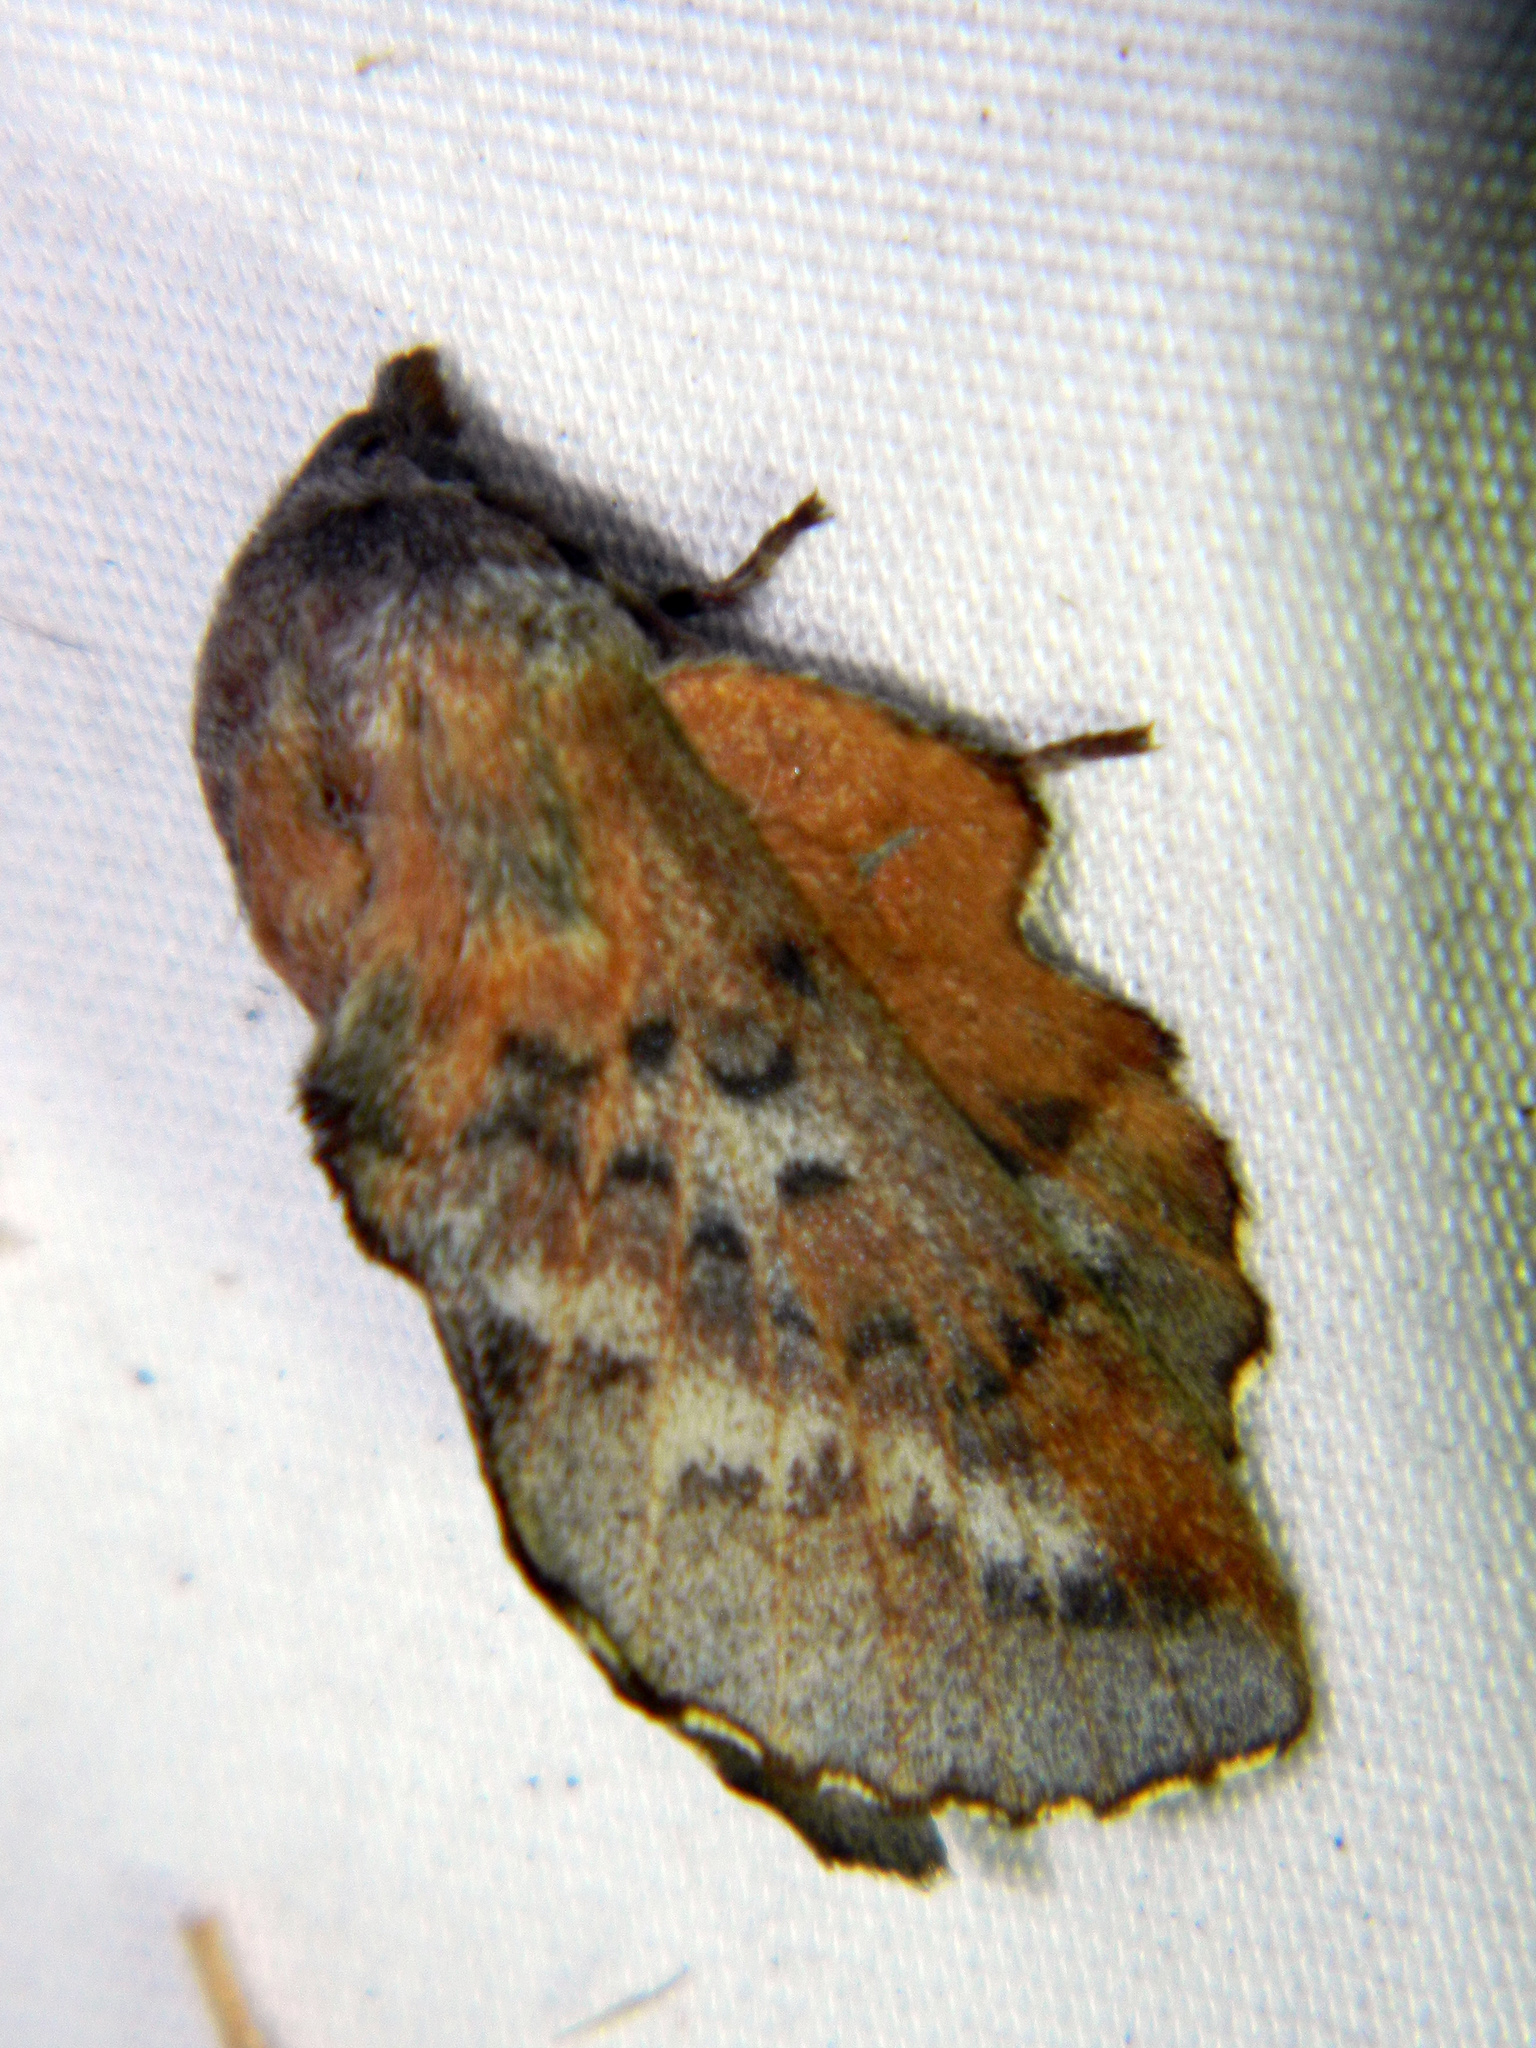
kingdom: Animalia
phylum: Arthropoda
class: Insecta
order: Lepidoptera
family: Lasiocampidae
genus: Phyllodesma
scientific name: Phyllodesma americana
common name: American lappet moth
